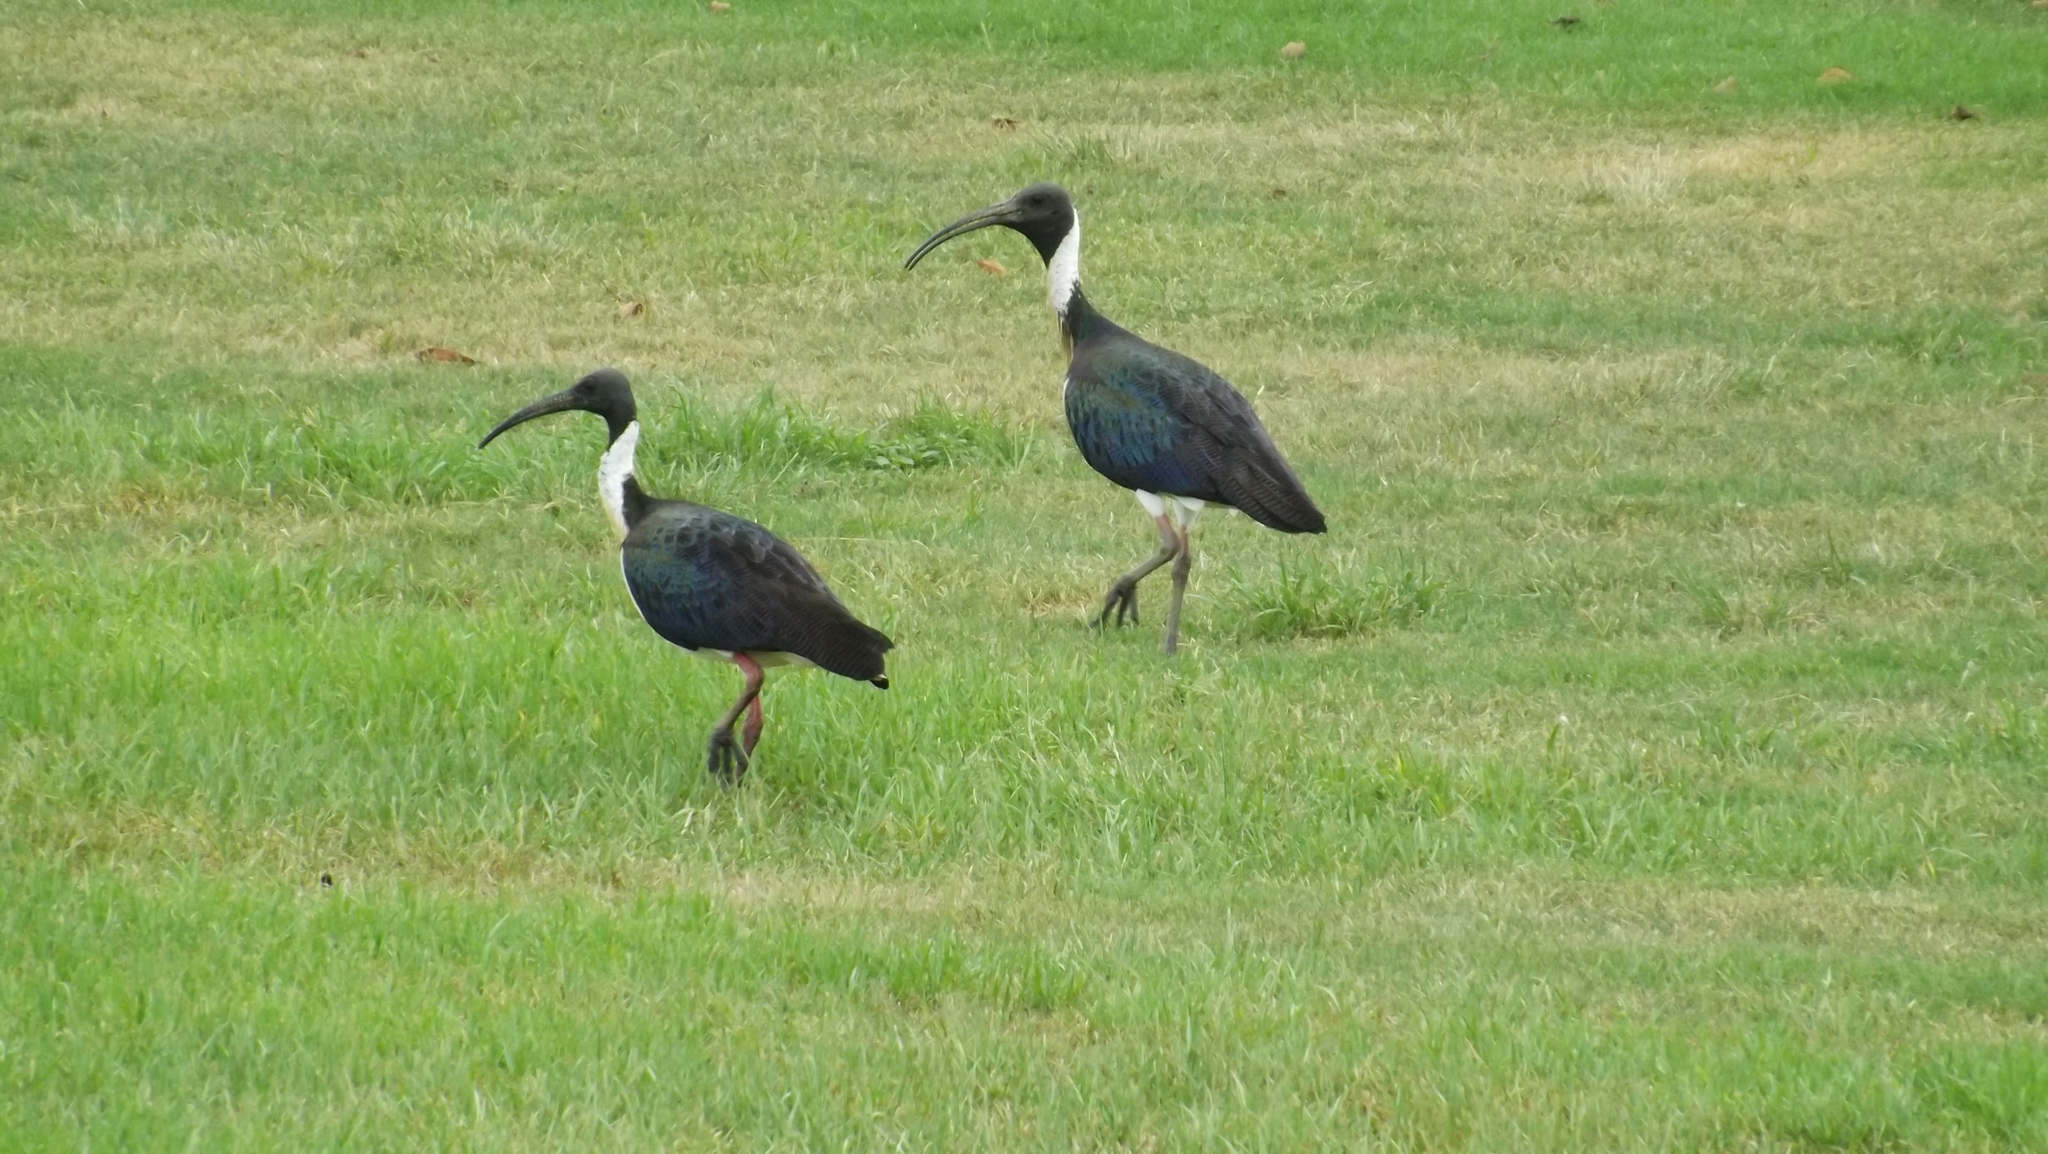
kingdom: Animalia
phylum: Chordata
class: Aves
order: Pelecaniformes
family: Threskiornithidae
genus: Threskiornis
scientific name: Threskiornis spinicollis
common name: Straw-necked ibis
